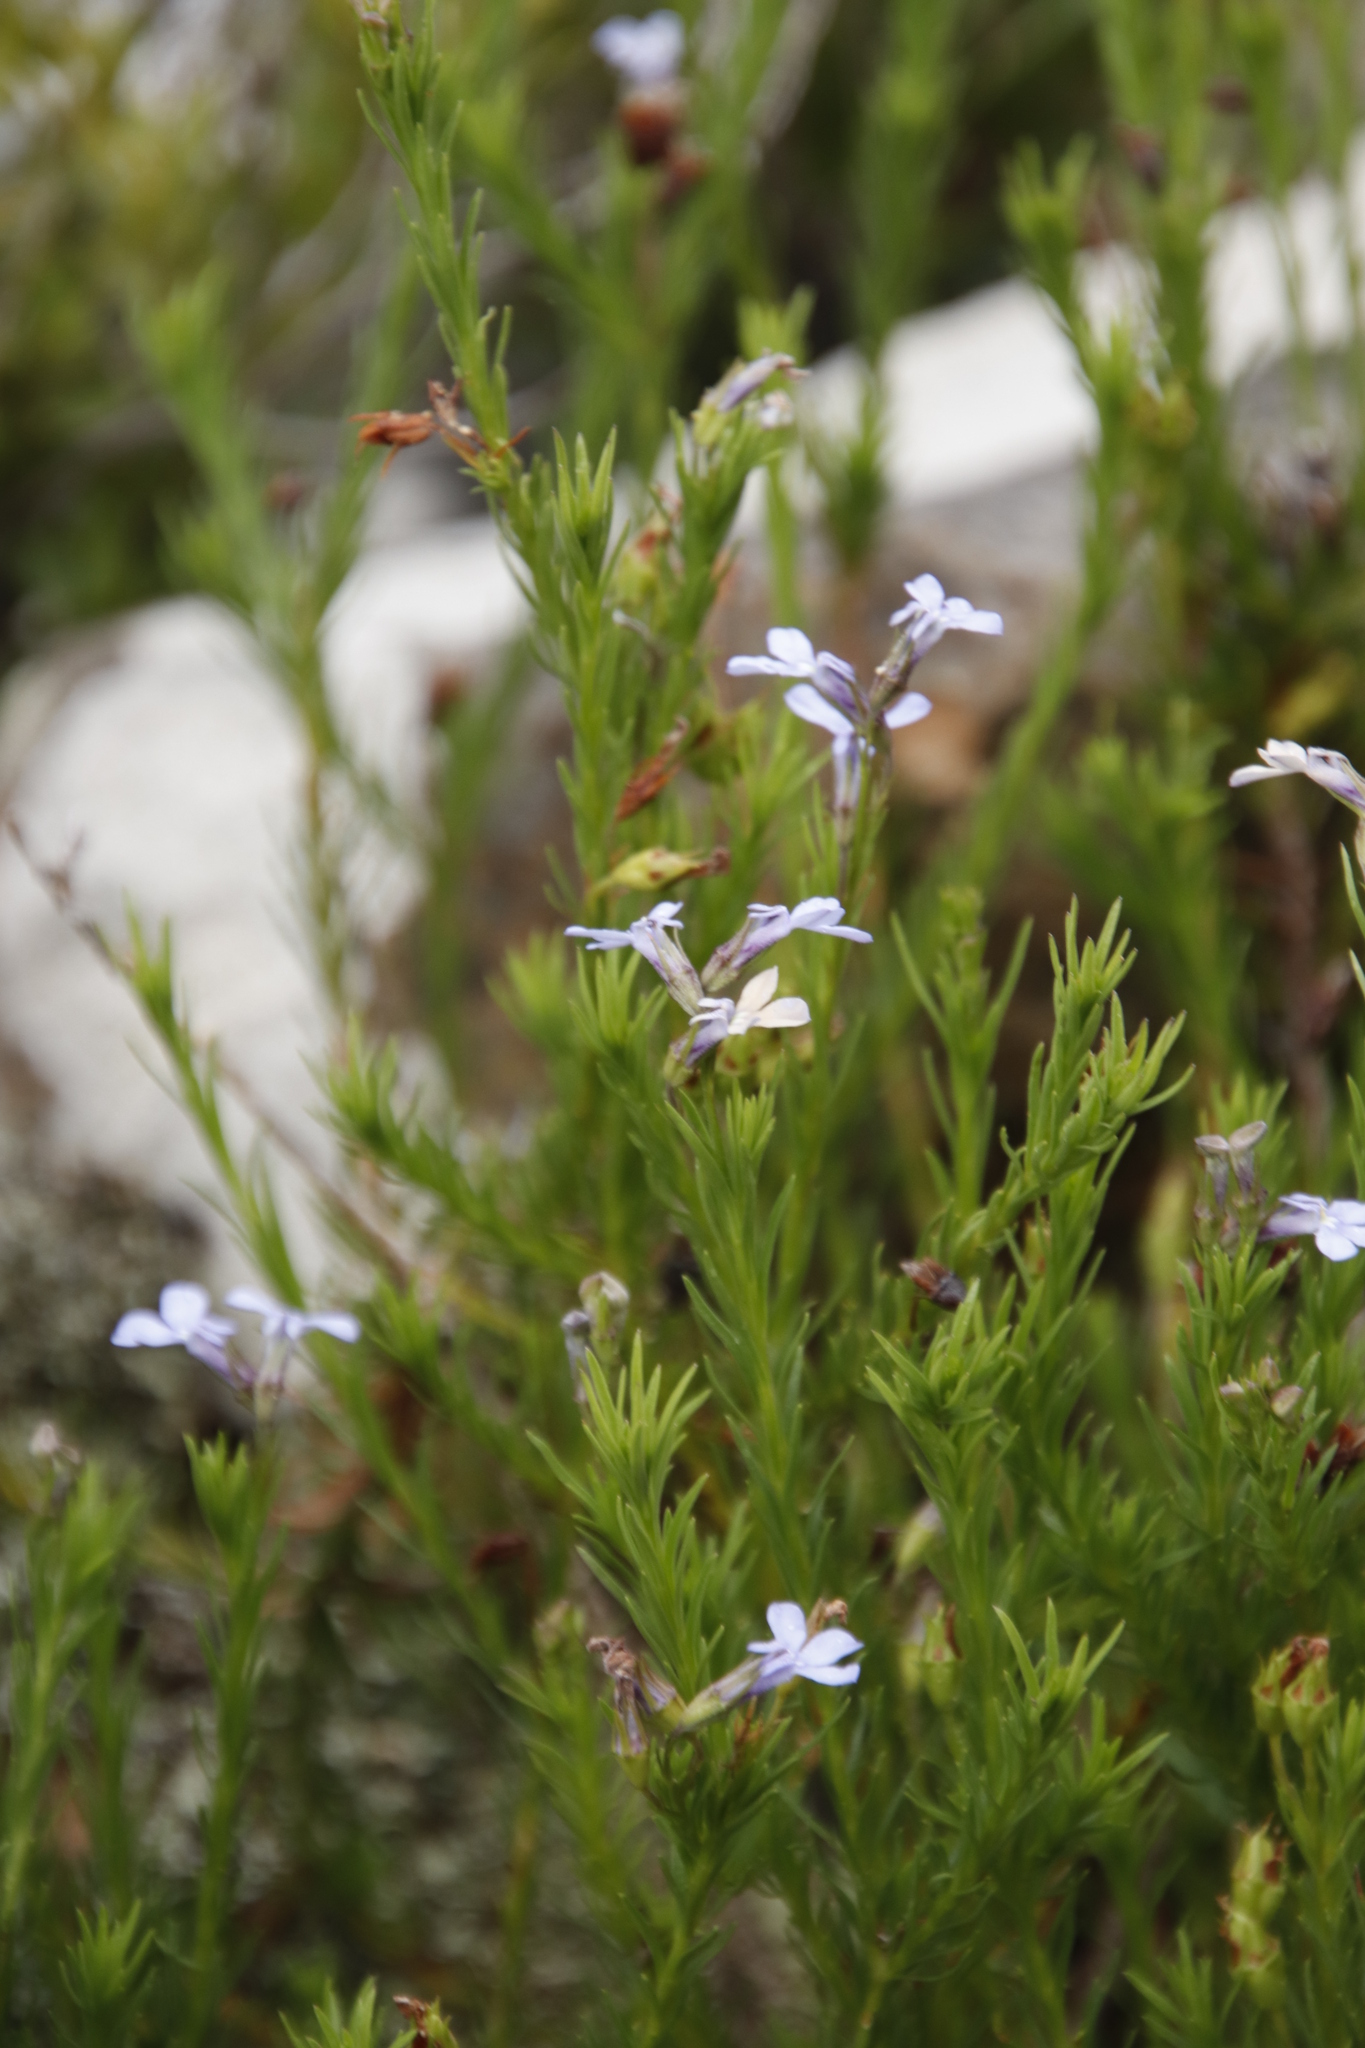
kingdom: Plantae
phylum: Tracheophyta
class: Magnoliopsida
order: Asterales
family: Campanulaceae
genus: Lobelia
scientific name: Lobelia pinifolia
